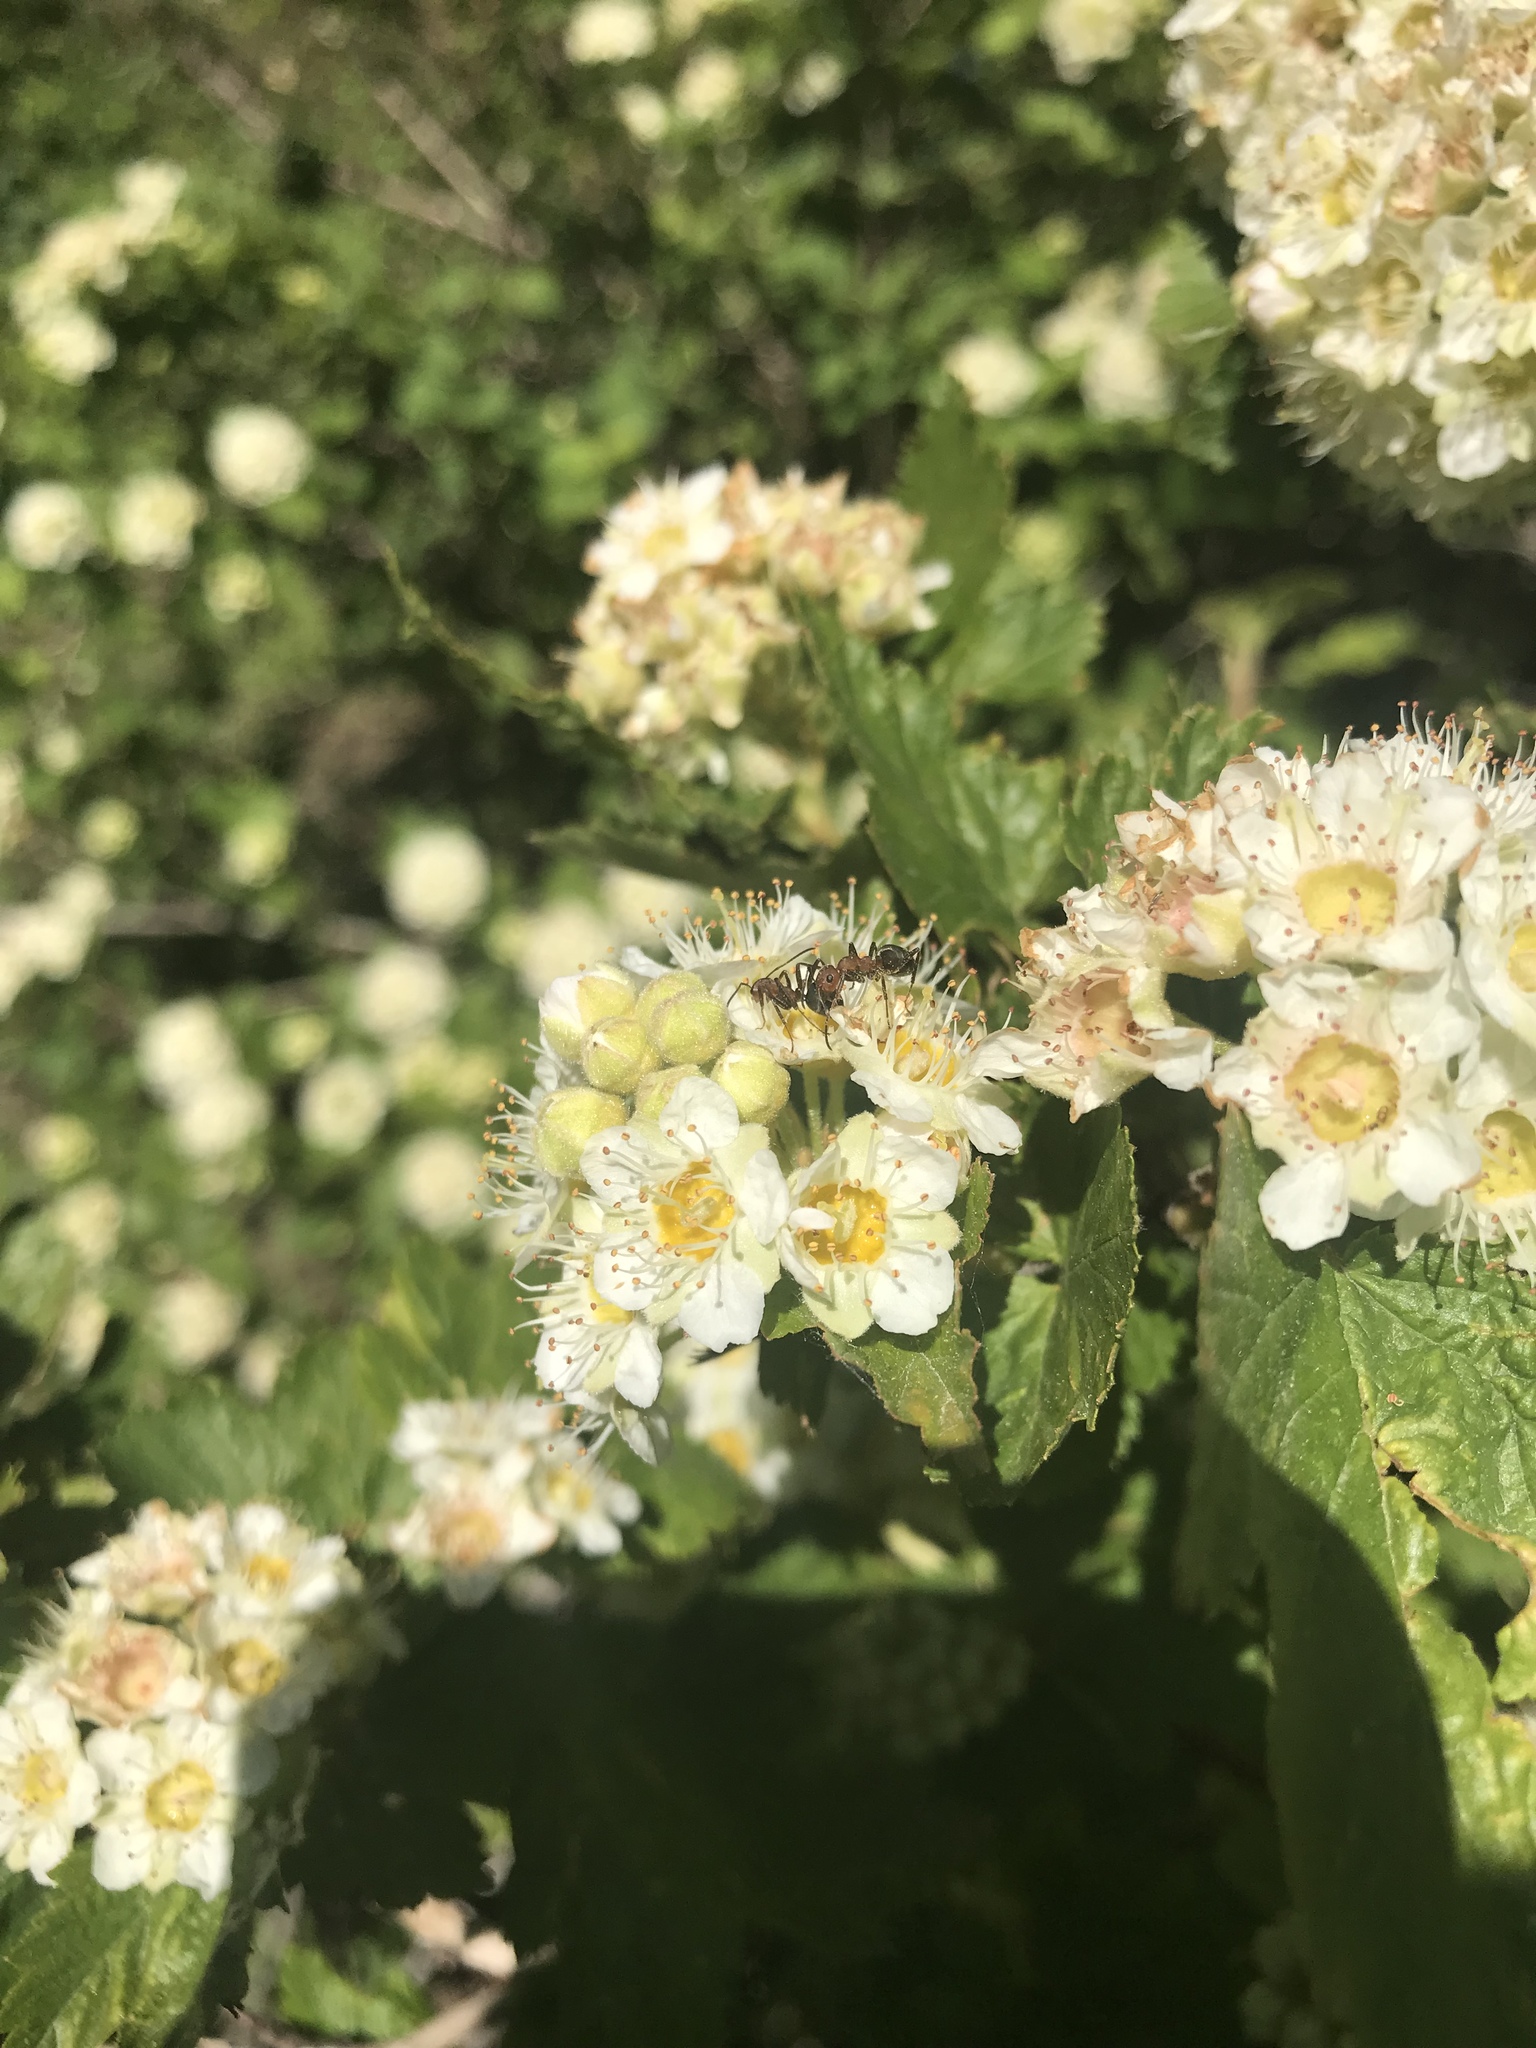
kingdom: Plantae
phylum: Tracheophyta
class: Magnoliopsida
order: Rosales
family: Rosaceae
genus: Physocarpus
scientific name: Physocarpus malvaceus
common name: Mallow ninebark
